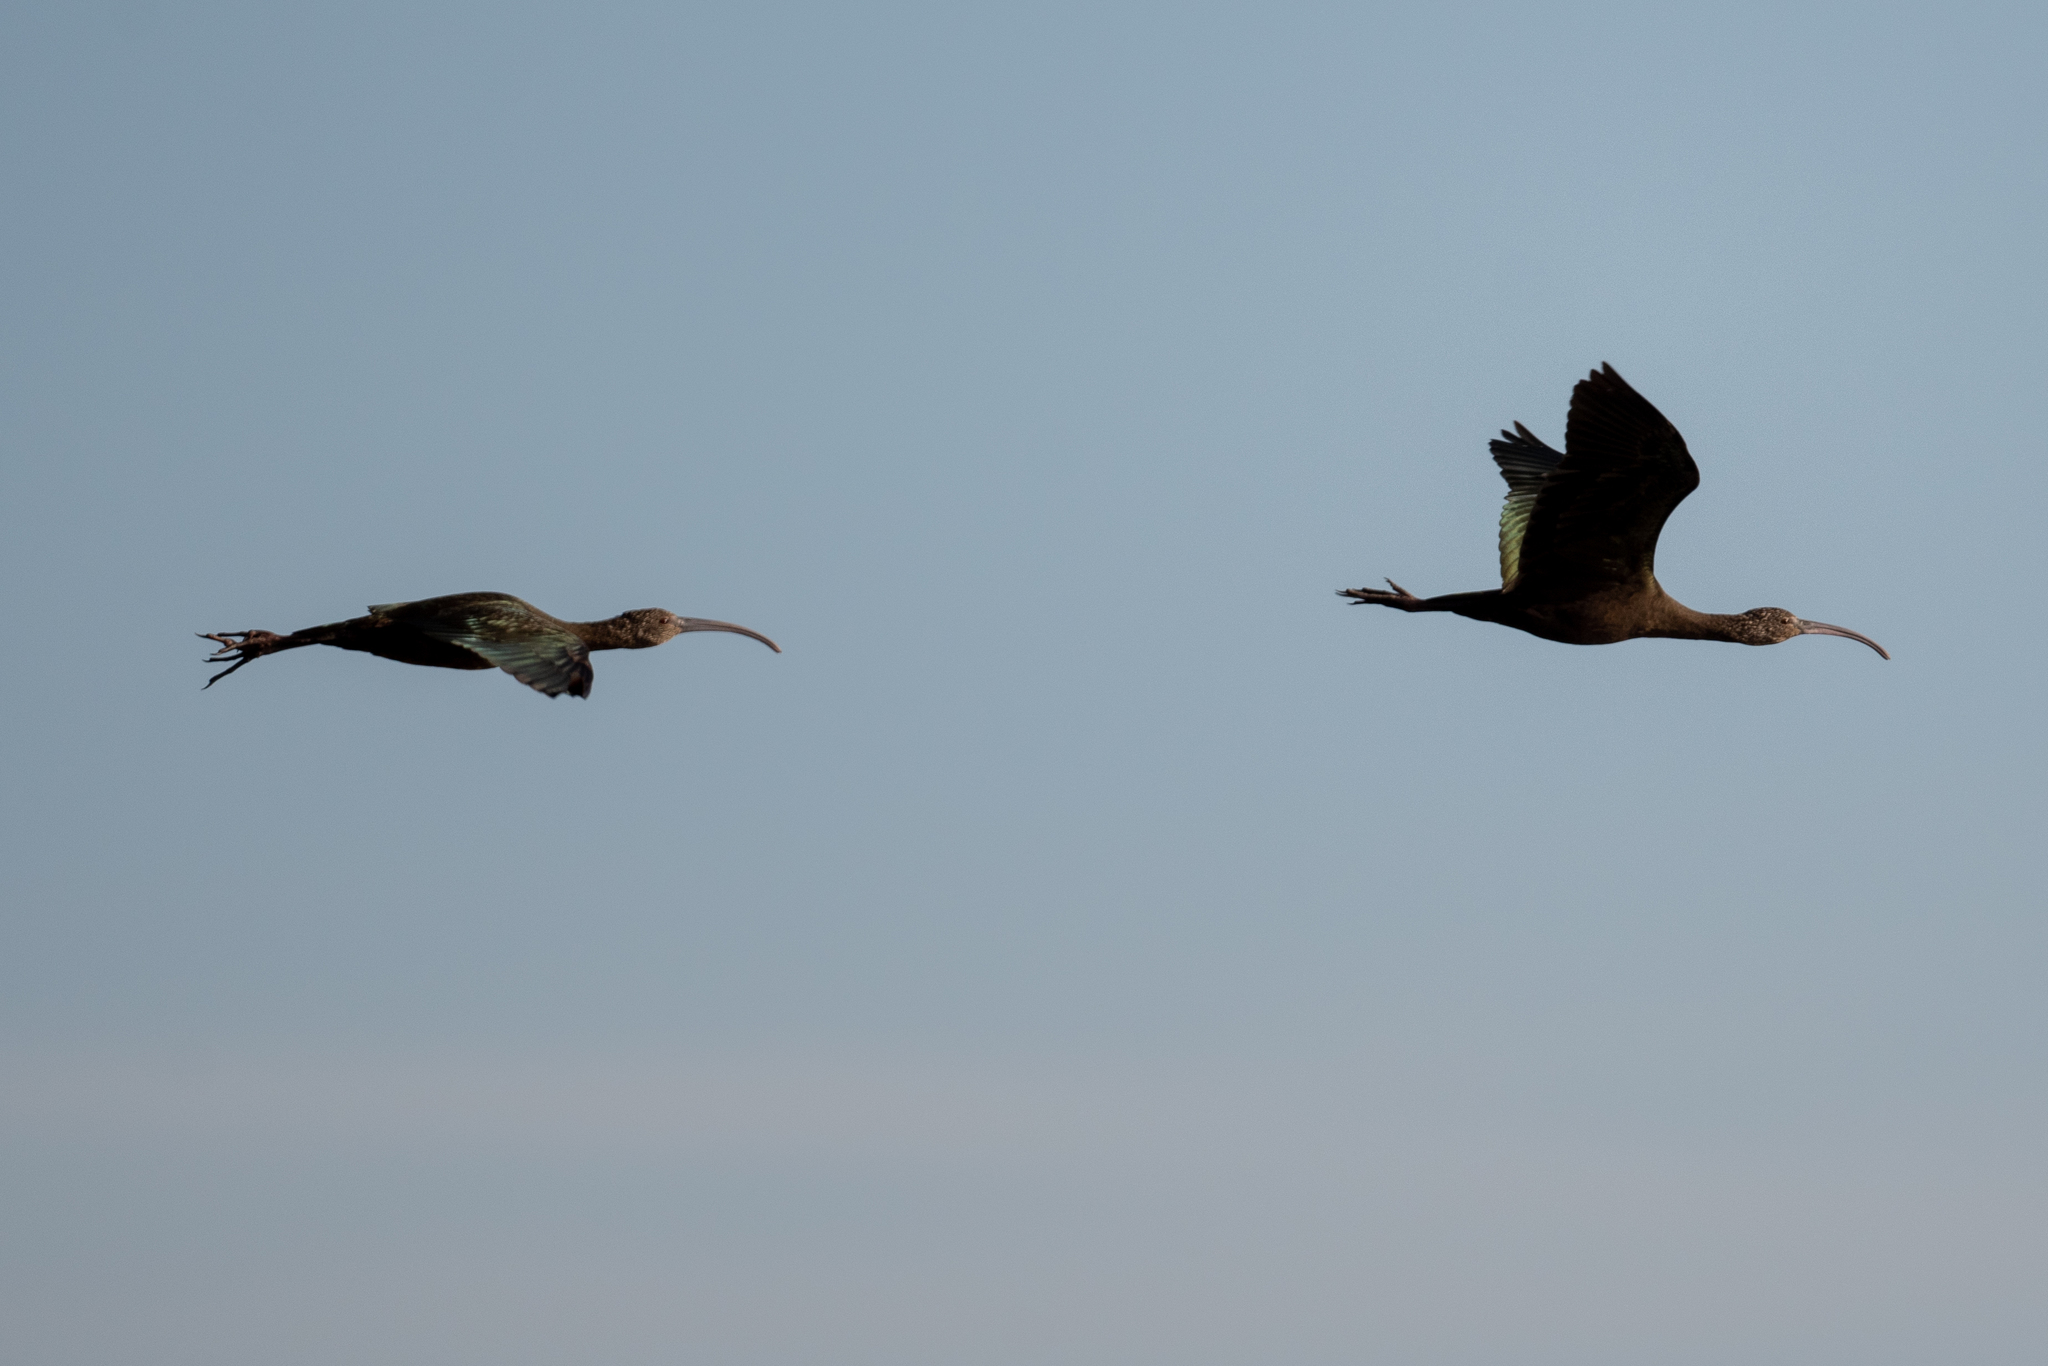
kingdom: Animalia
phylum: Chordata
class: Aves
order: Pelecaniformes
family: Threskiornithidae
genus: Plegadis
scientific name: Plegadis chihi
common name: White-faced ibis
